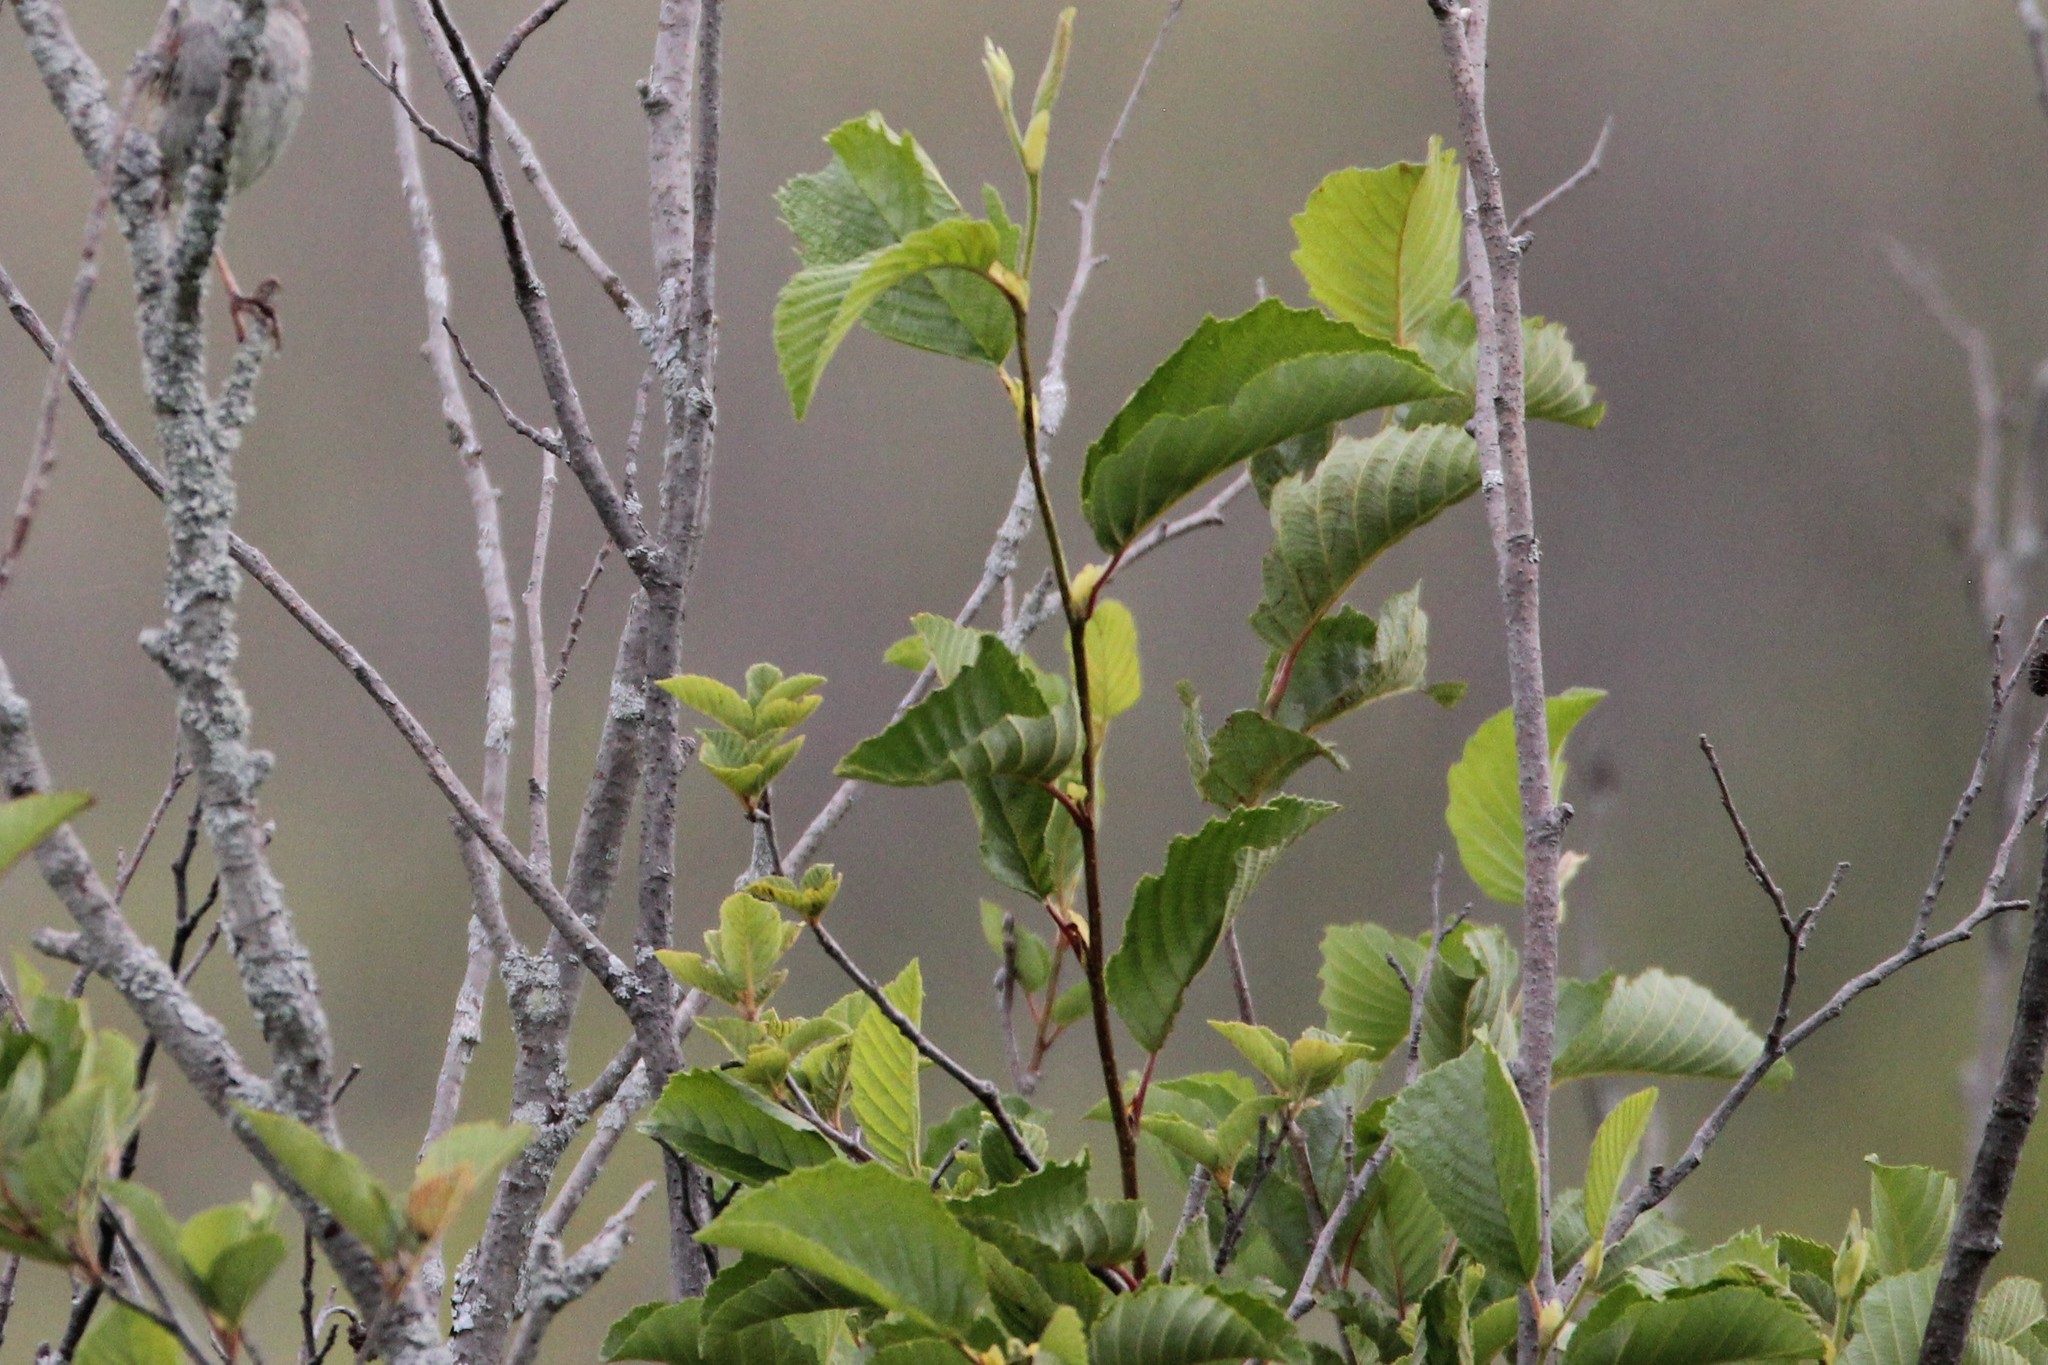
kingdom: Plantae
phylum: Tracheophyta
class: Magnoliopsida
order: Fagales
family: Betulaceae
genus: Alnus
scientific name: Alnus incana
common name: Grey alder
